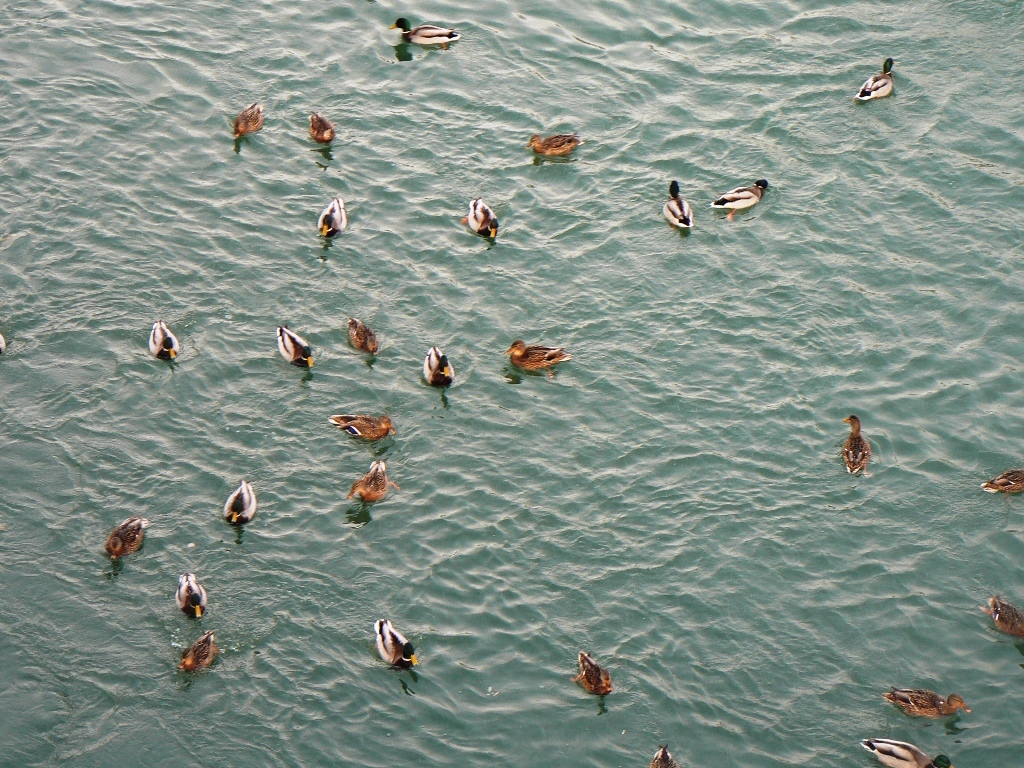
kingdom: Animalia
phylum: Chordata
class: Aves
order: Anseriformes
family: Anatidae
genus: Anas
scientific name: Anas platyrhynchos
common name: Mallard
